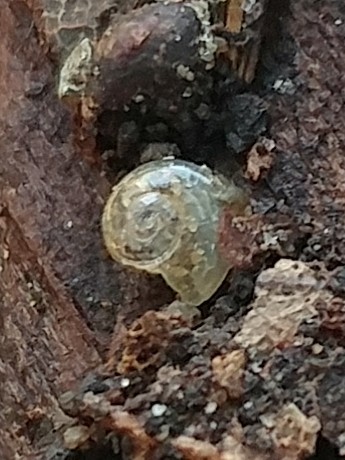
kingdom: Animalia
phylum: Mollusca
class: Gastropoda
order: Stylommatophora
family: Oxychilidae
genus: Oxychilus
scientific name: Oxychilus
